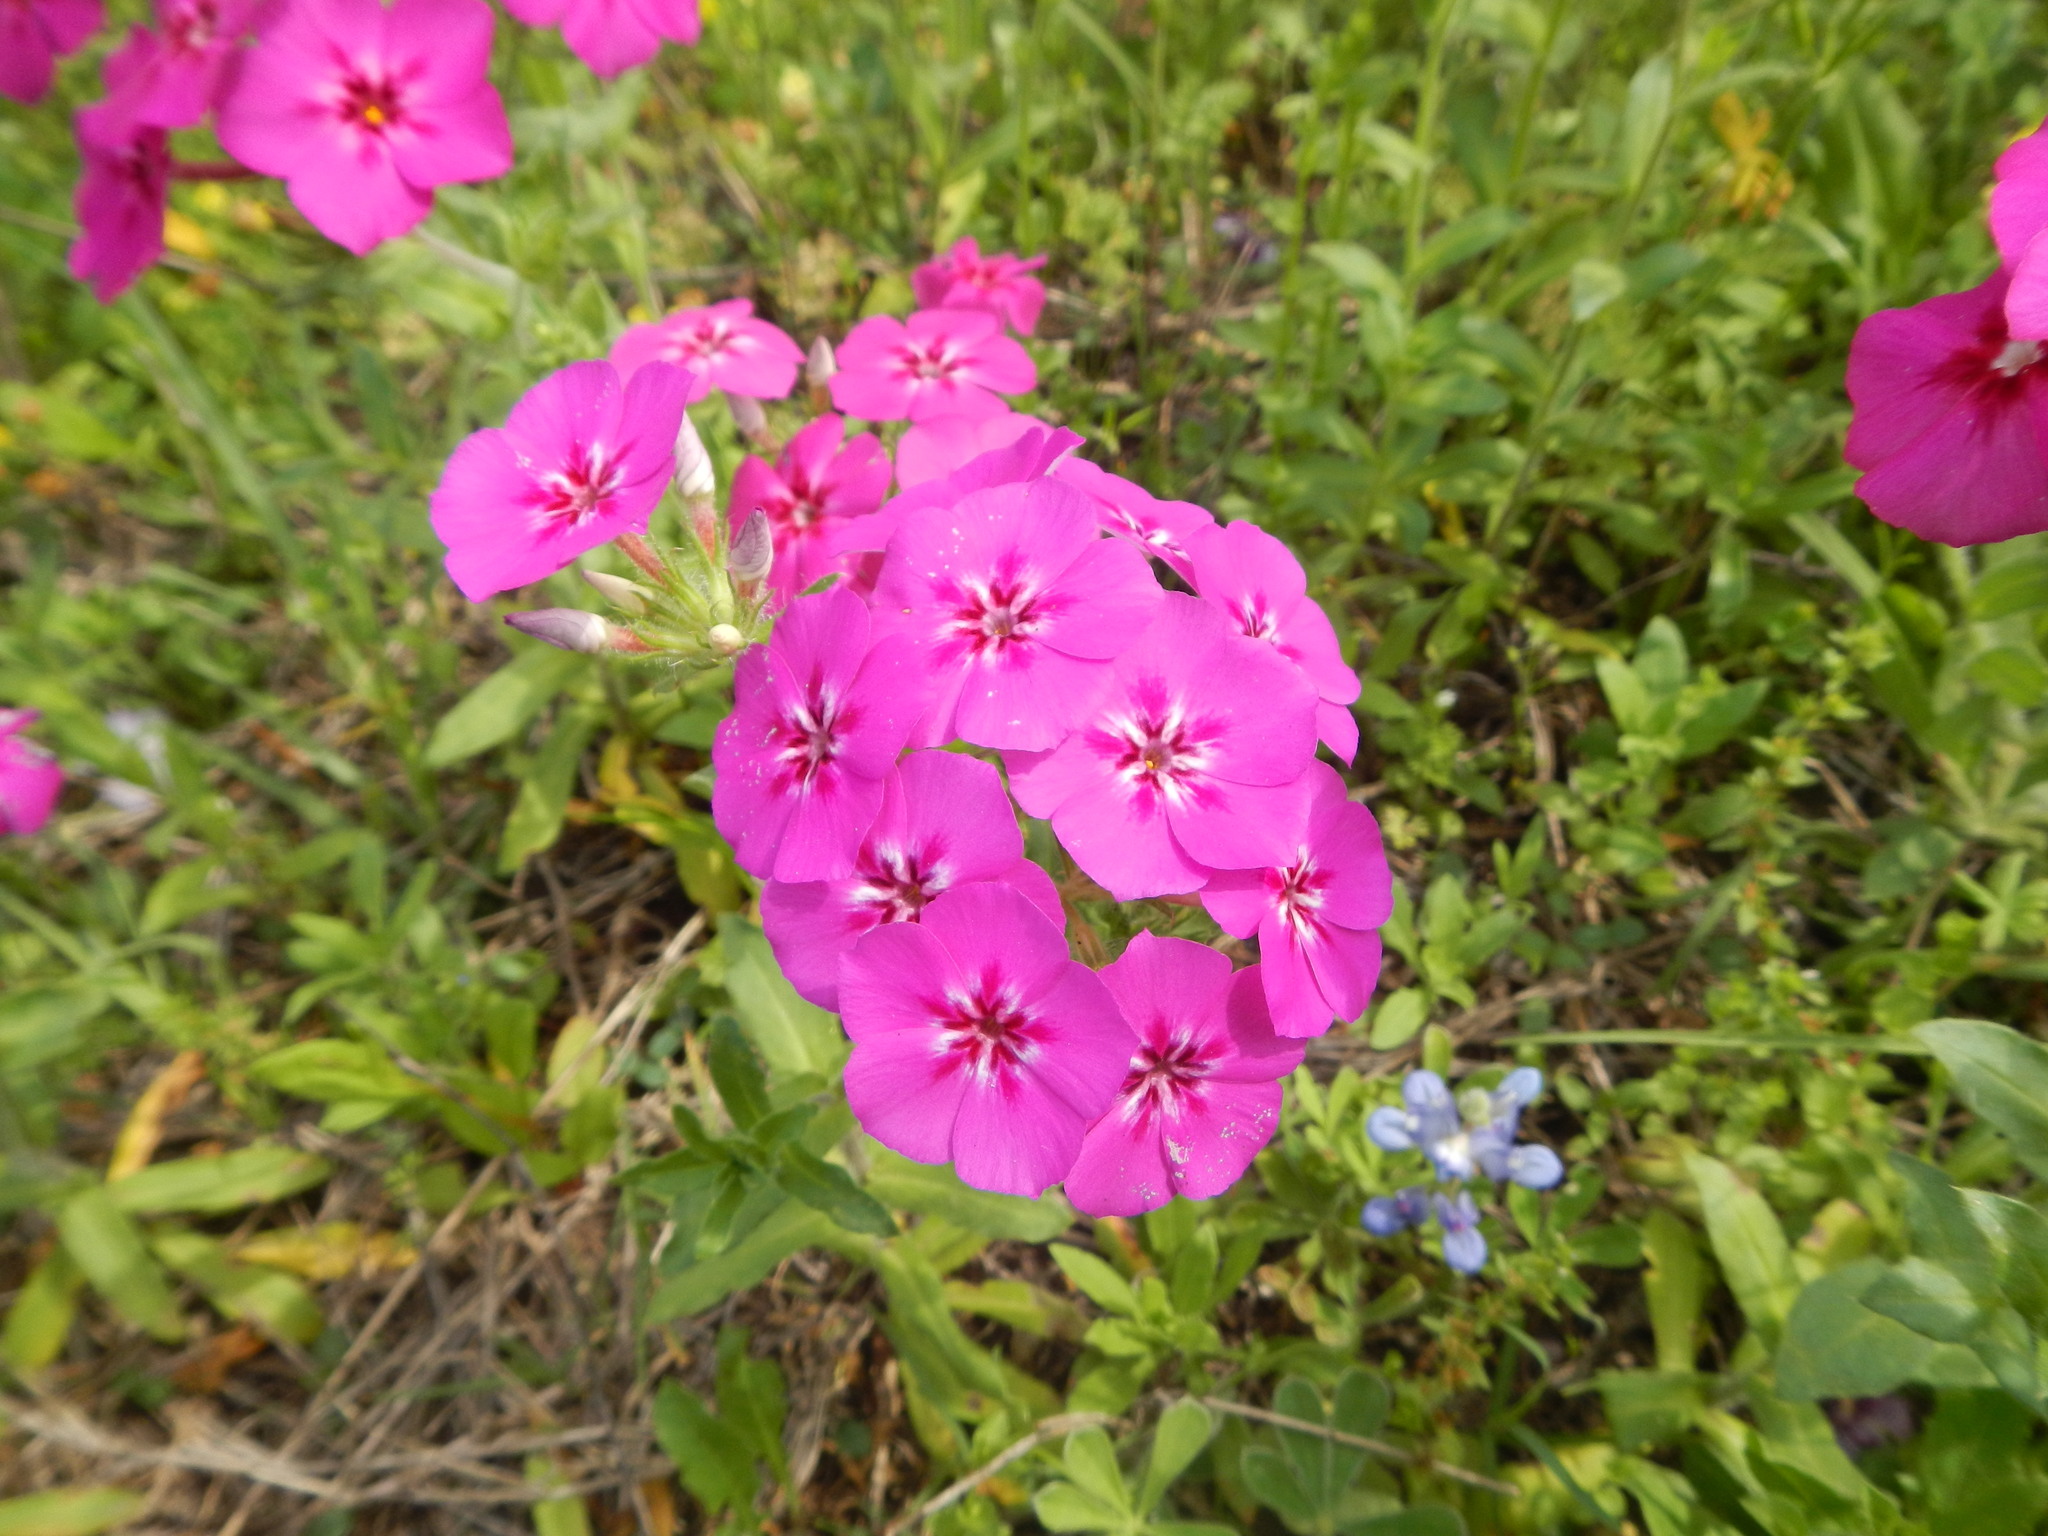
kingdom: Plantae
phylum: Tracheophyta
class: Magnoliopsida
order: Ericales
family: Polemoniaceae
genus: Phlox
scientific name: Phlox drummondii
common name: Drummond's phlox
